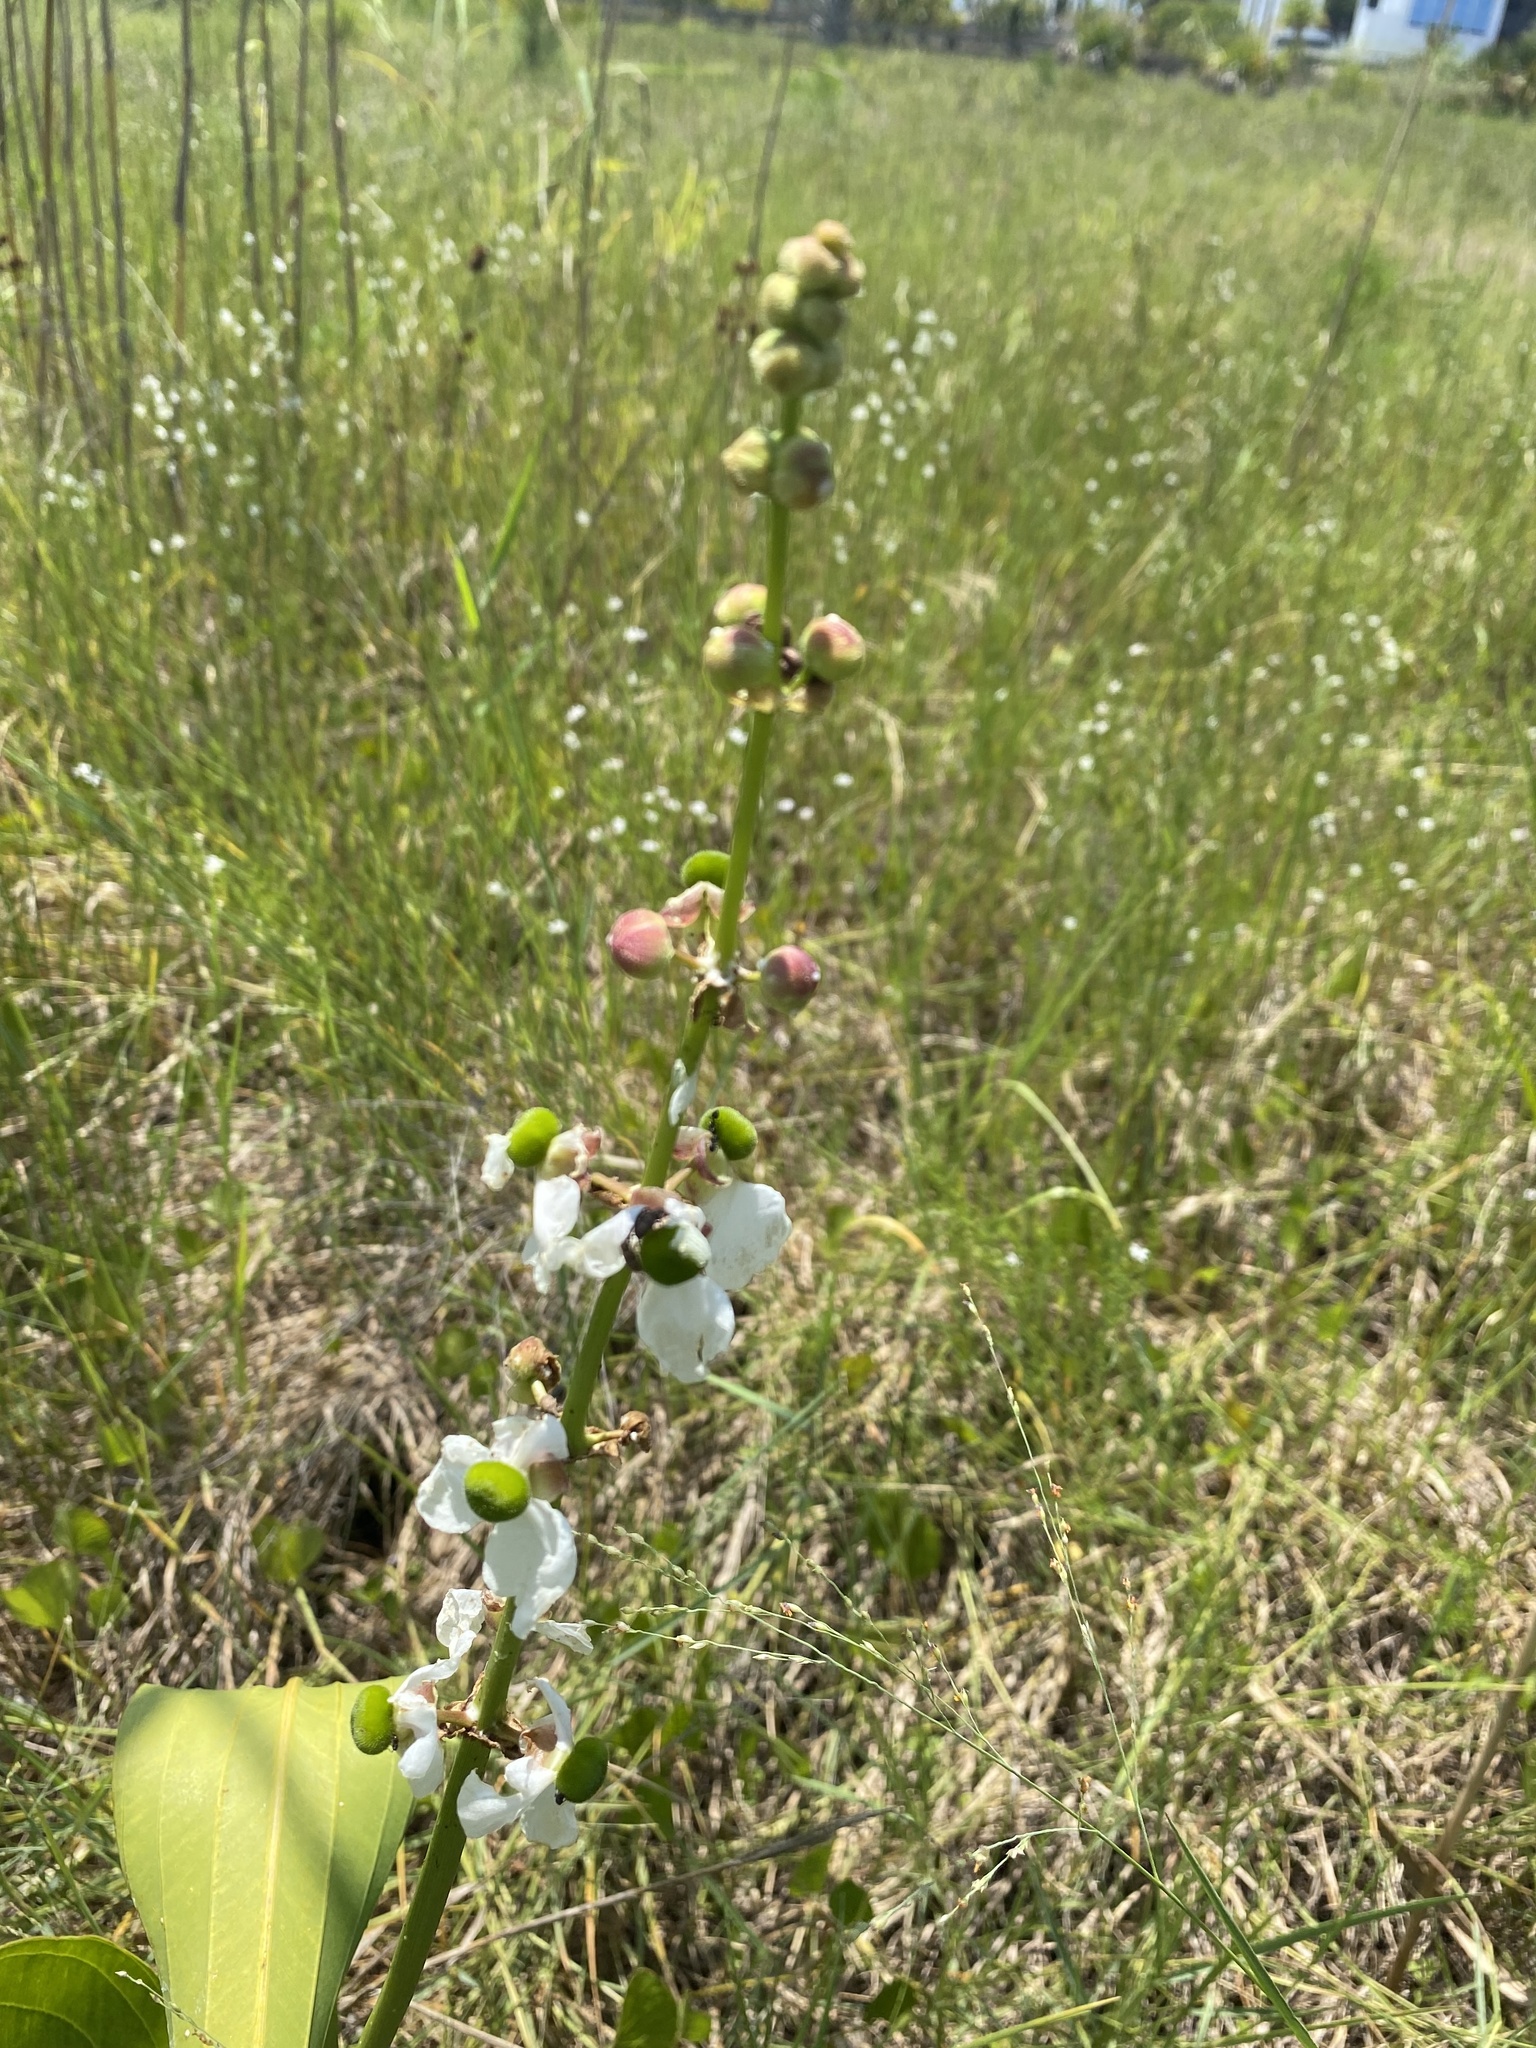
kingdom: Plantae
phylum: Tracheophyta
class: Liliopsida
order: Alismatales
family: Alismataceae
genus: Sagittaria
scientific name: Sagittaria lancifolia
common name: Lance-leaf arrowhead
